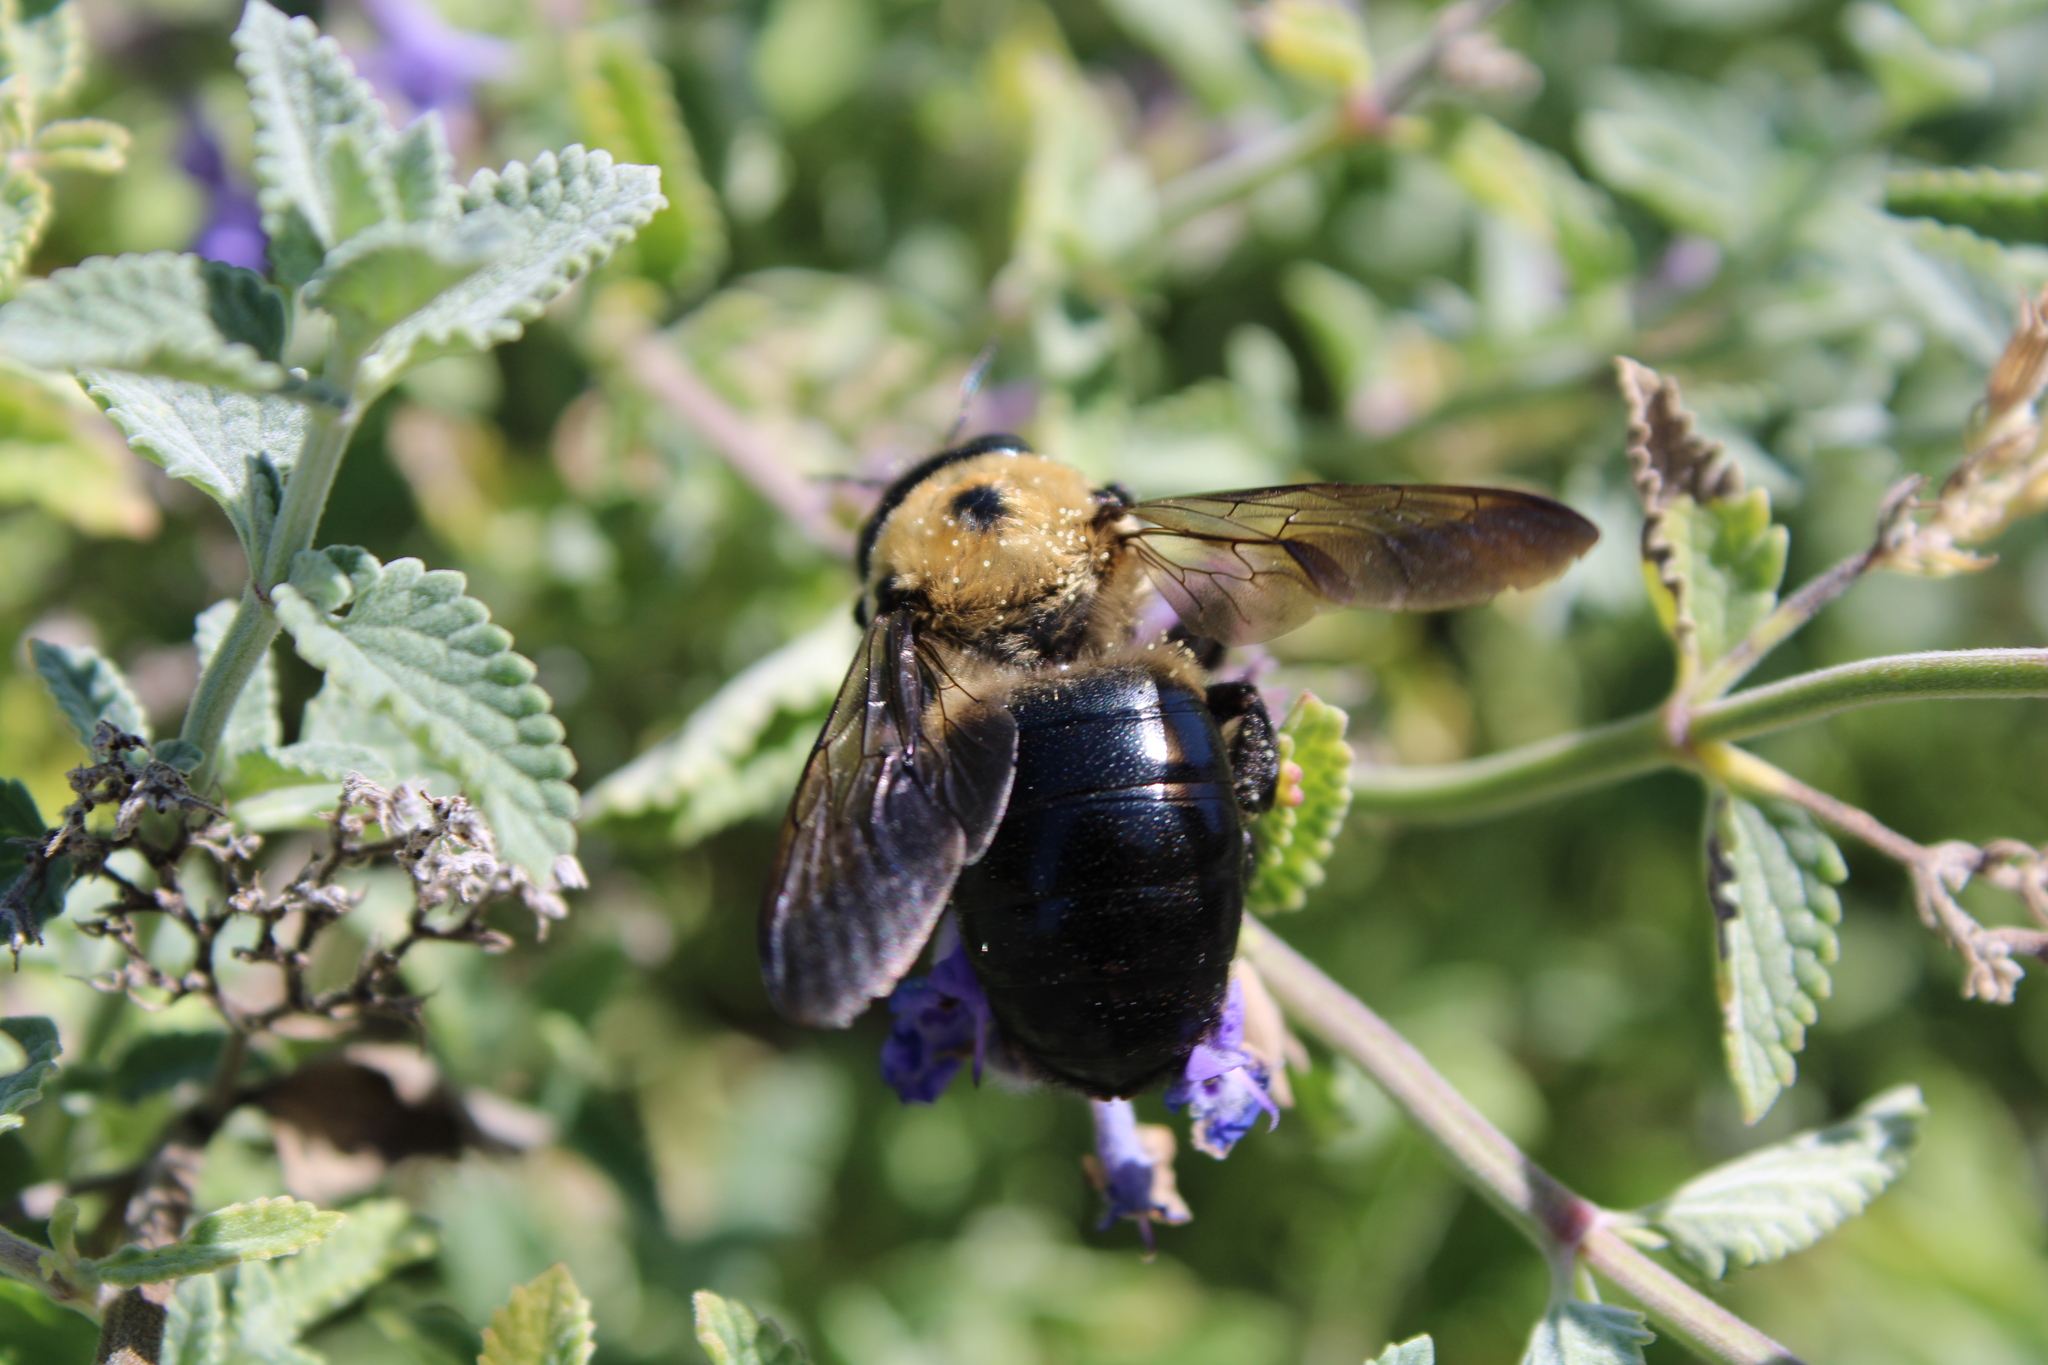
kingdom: Animalia
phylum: Arthropoda
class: Insecta
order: Hymenoptera
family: Apidae
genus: Xylocopa
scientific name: Xylocopa virginica
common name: Carpenter bee
